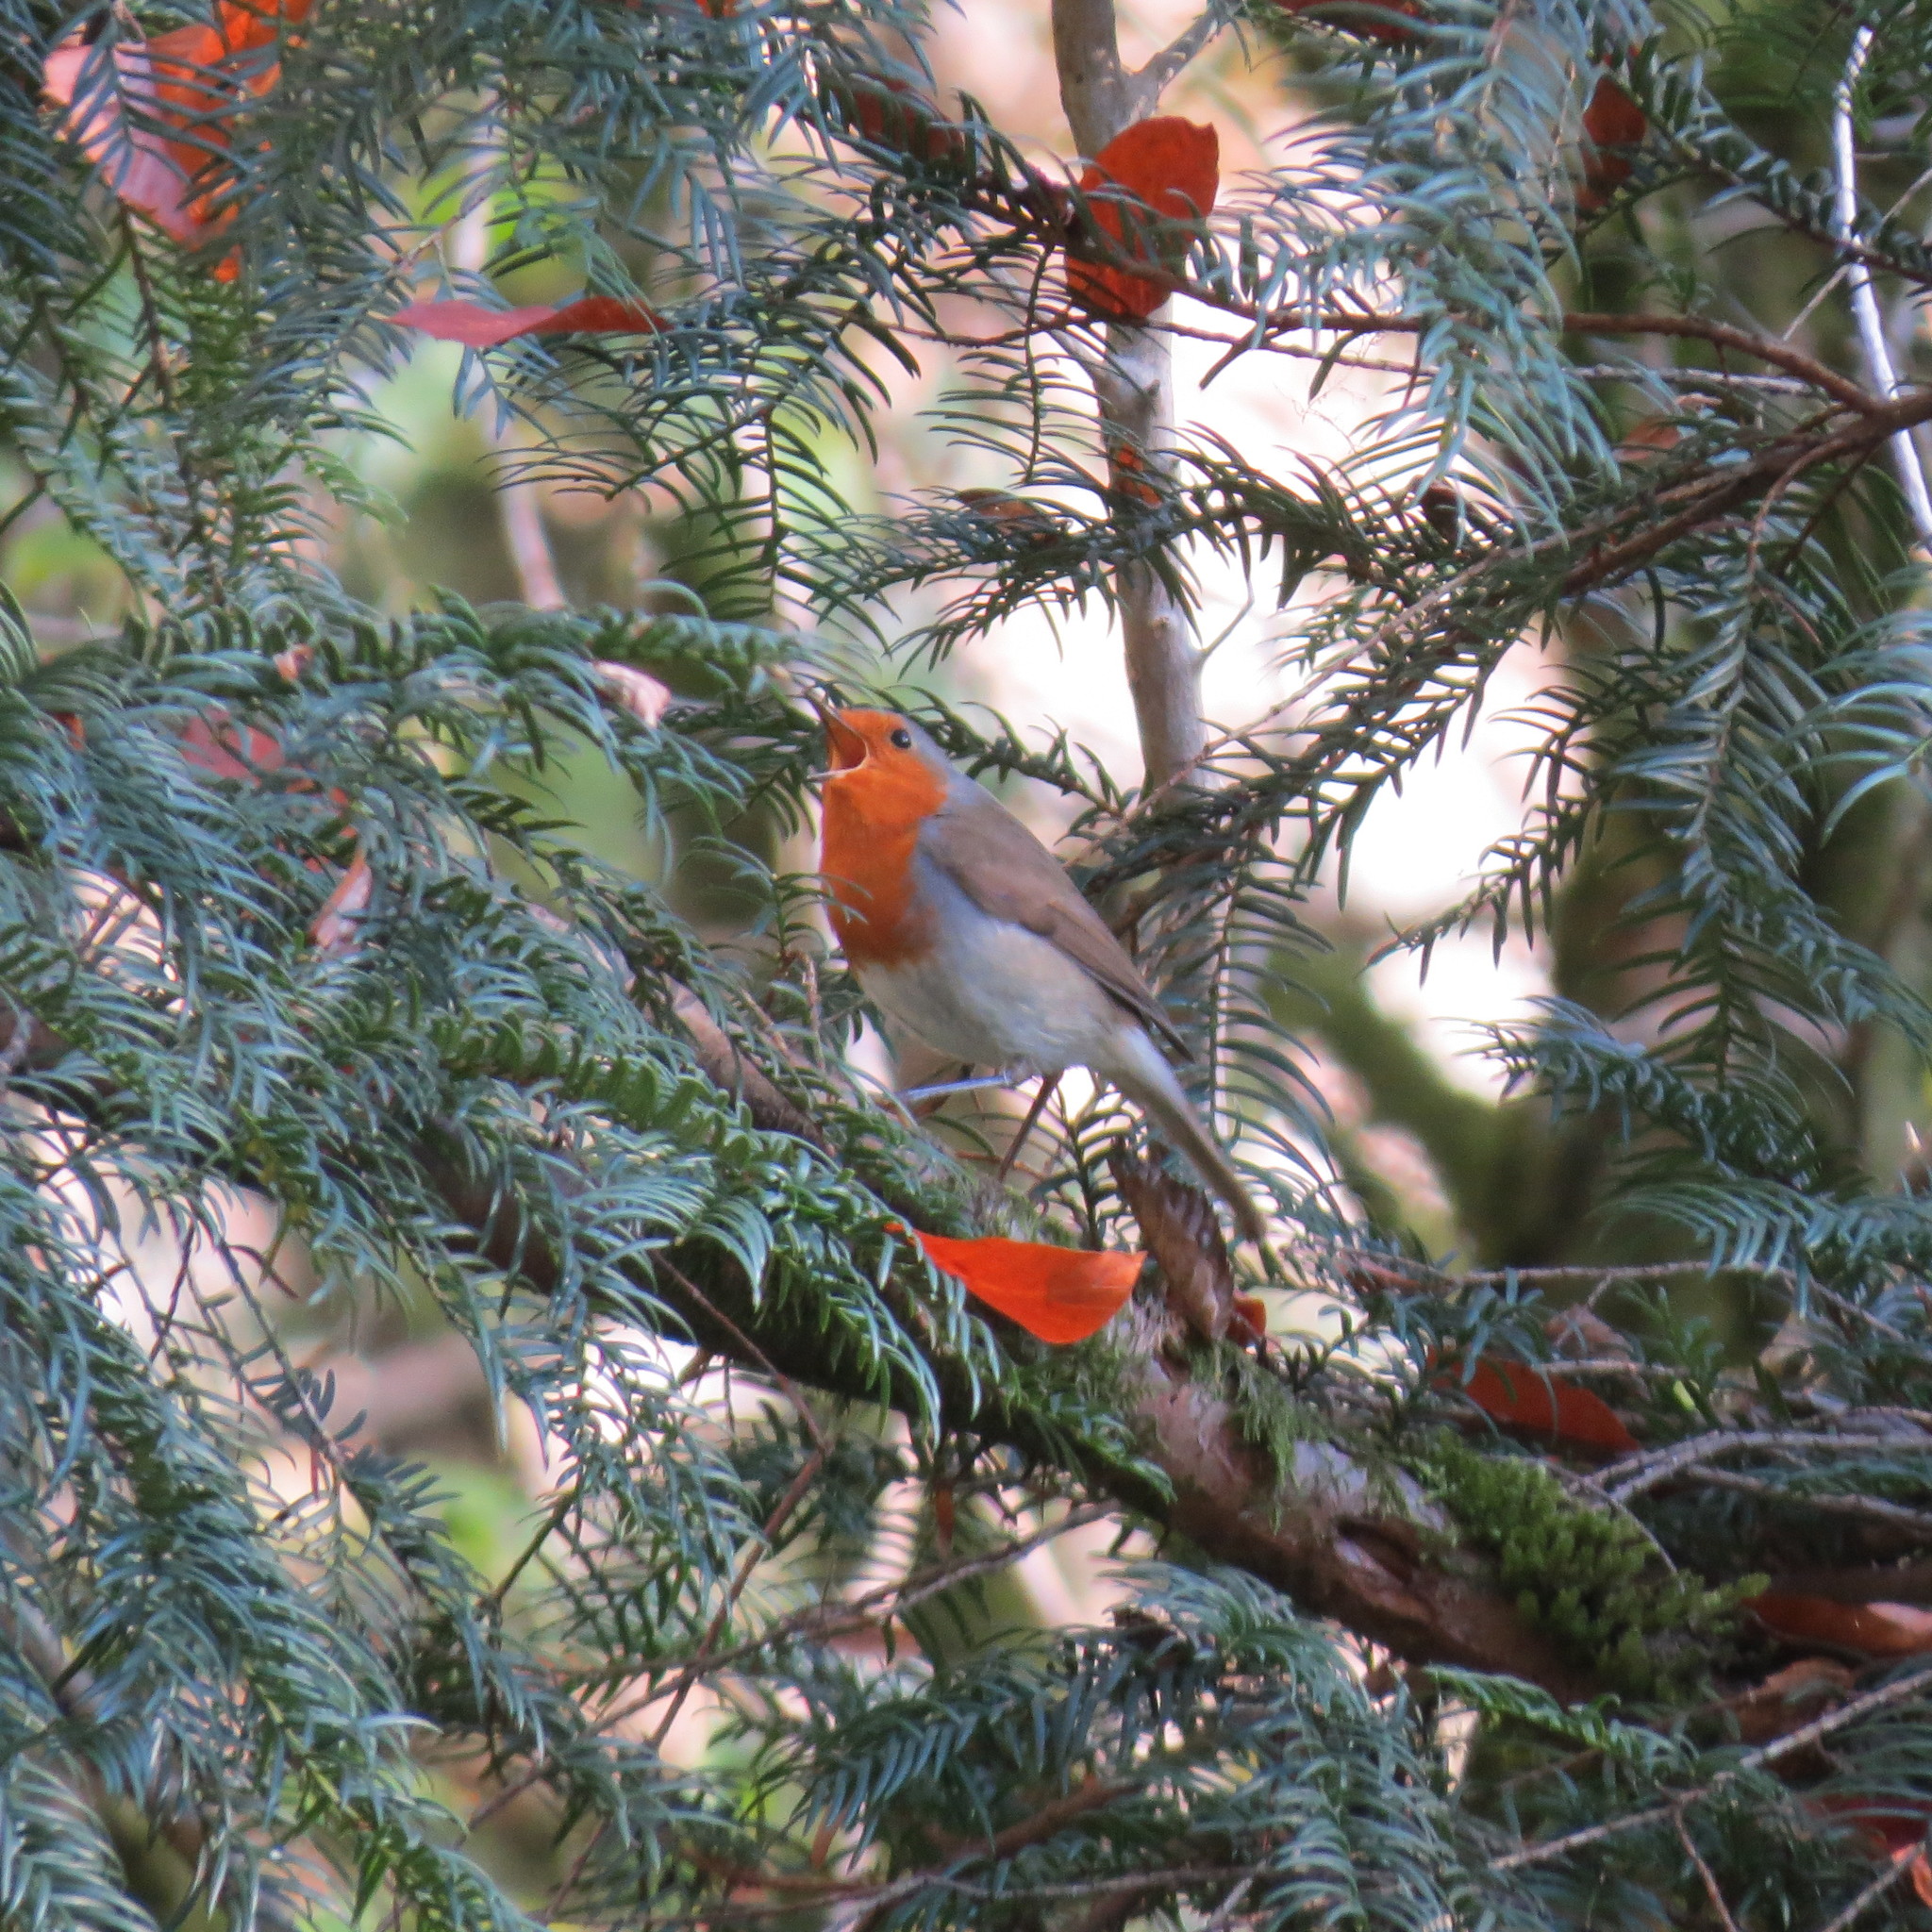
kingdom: Animalia
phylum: Chordata
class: Aves
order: Passeriformes
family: Muscicapidae
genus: Erithacus
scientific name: Erithacus rubecula
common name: European robin
